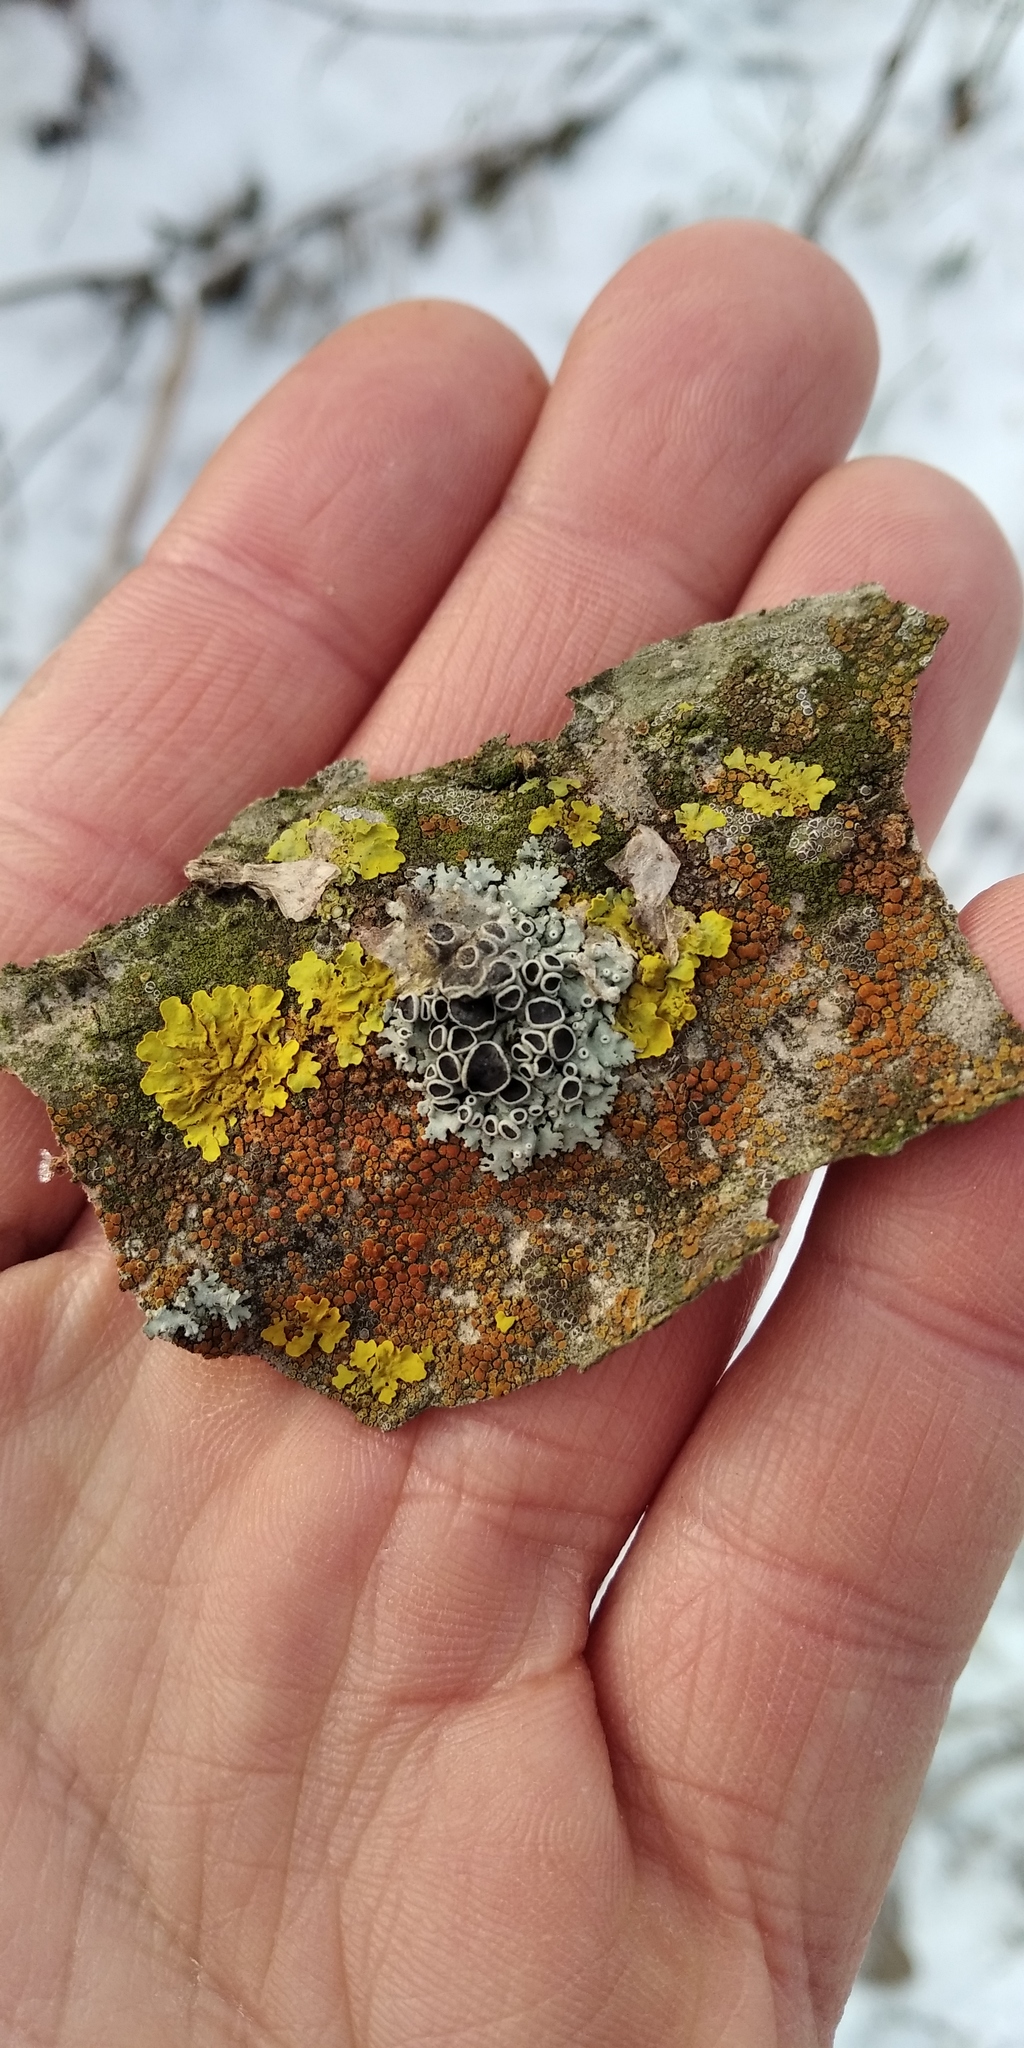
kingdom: Fungi
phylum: Ascomycota
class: Lecanoromycetes
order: Teloschistales
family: Teloschistaceae
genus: Xanthoria
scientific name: Xanthoria parietina
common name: Common orange lichen
